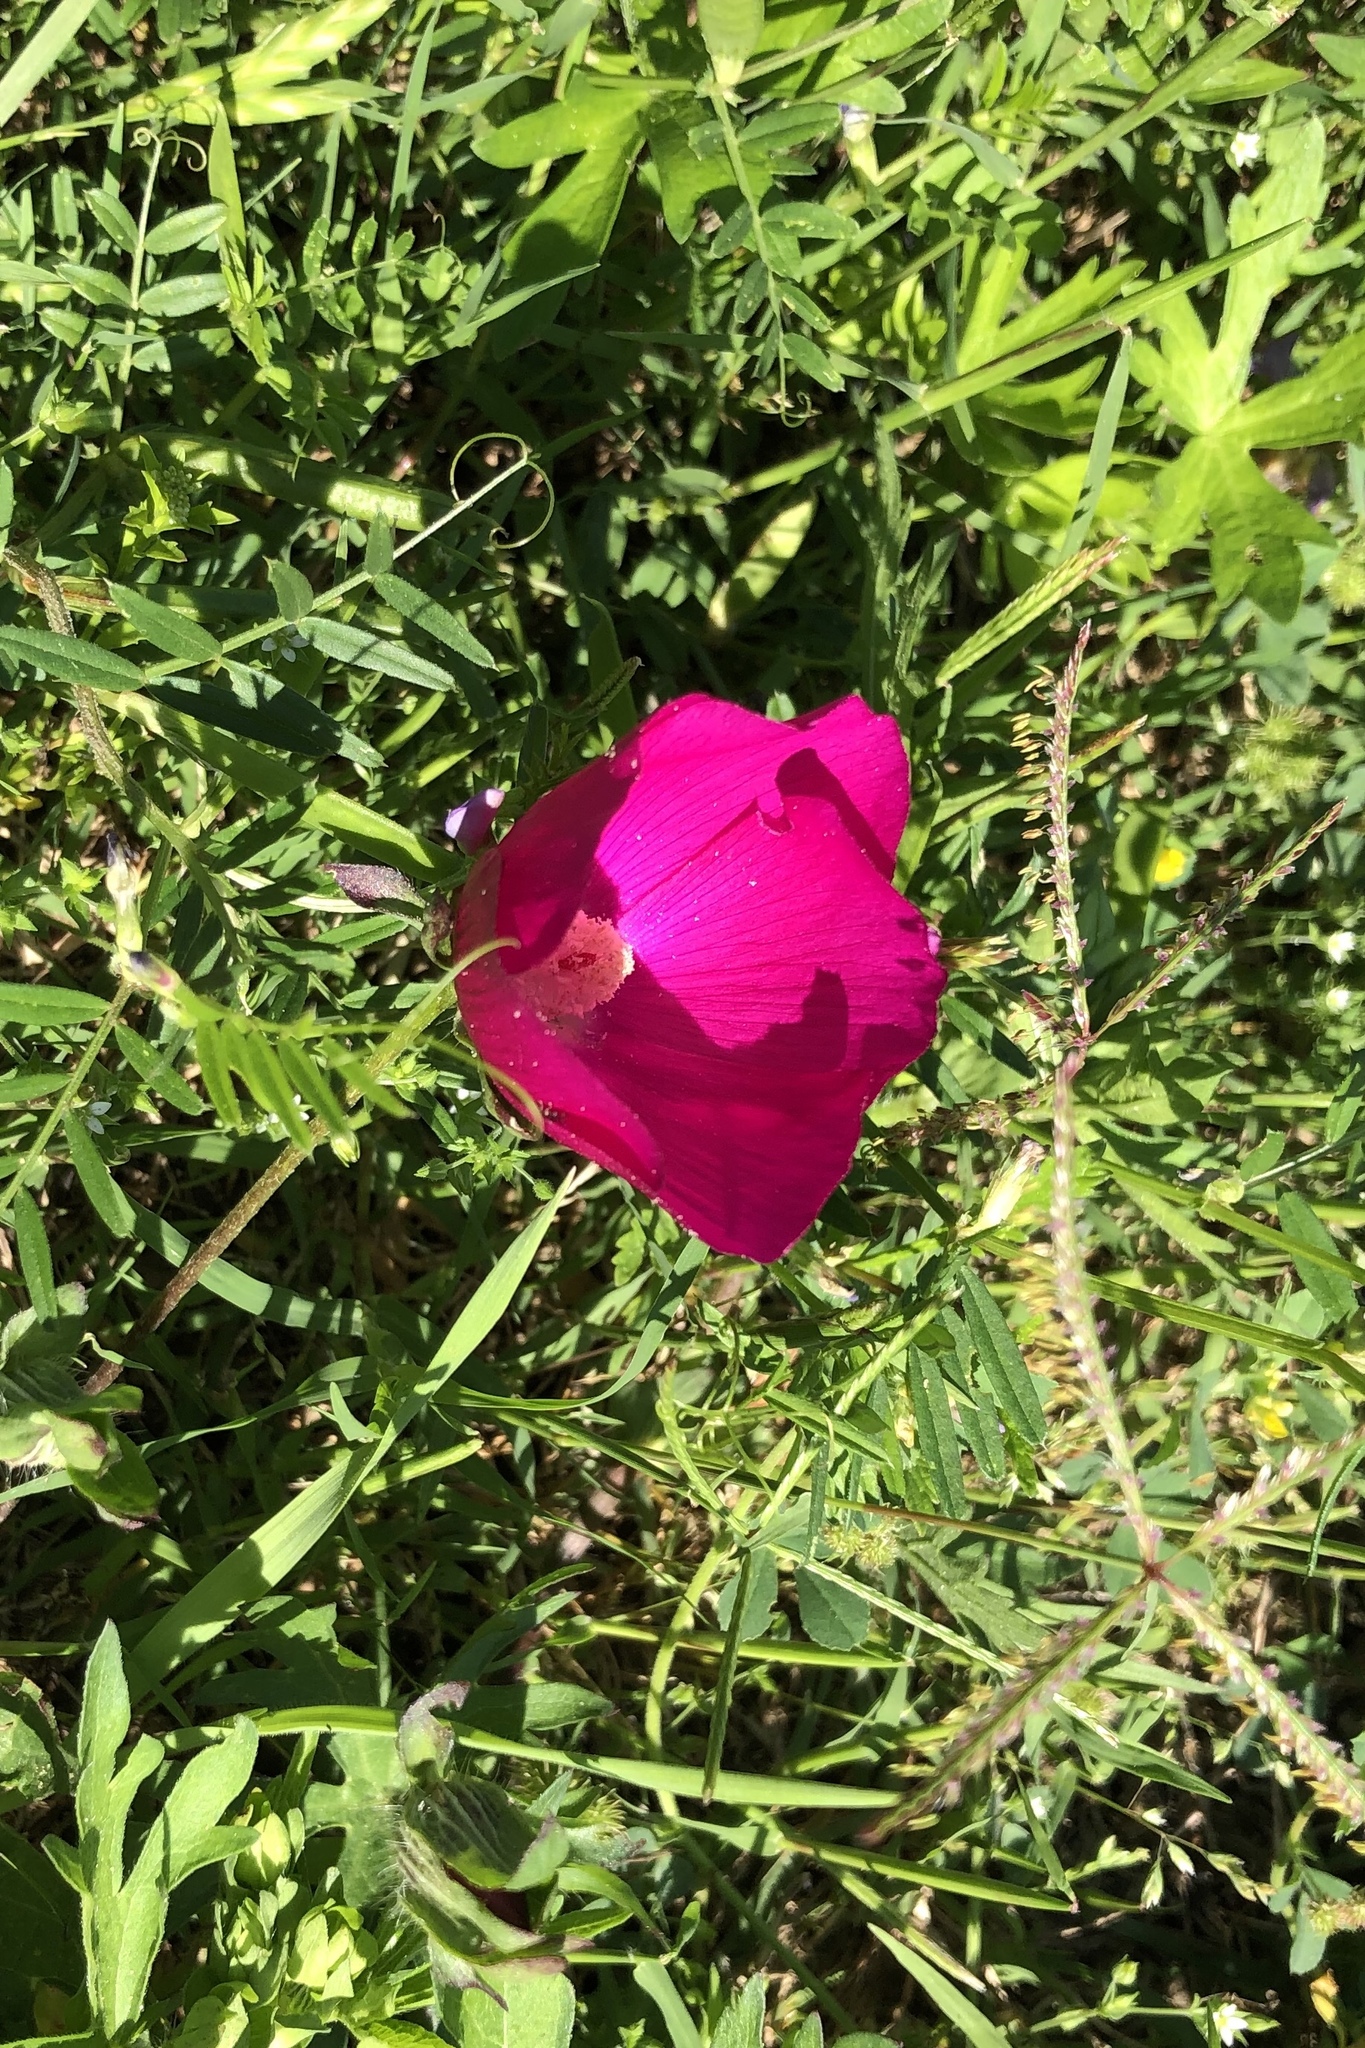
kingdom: Plantae
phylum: Tracheophyta
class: Magnoliopsida
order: Malvales
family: Malvaceae
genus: Callirhoe
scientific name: Callirhoe involucrata
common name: Purple poppy-mallow
